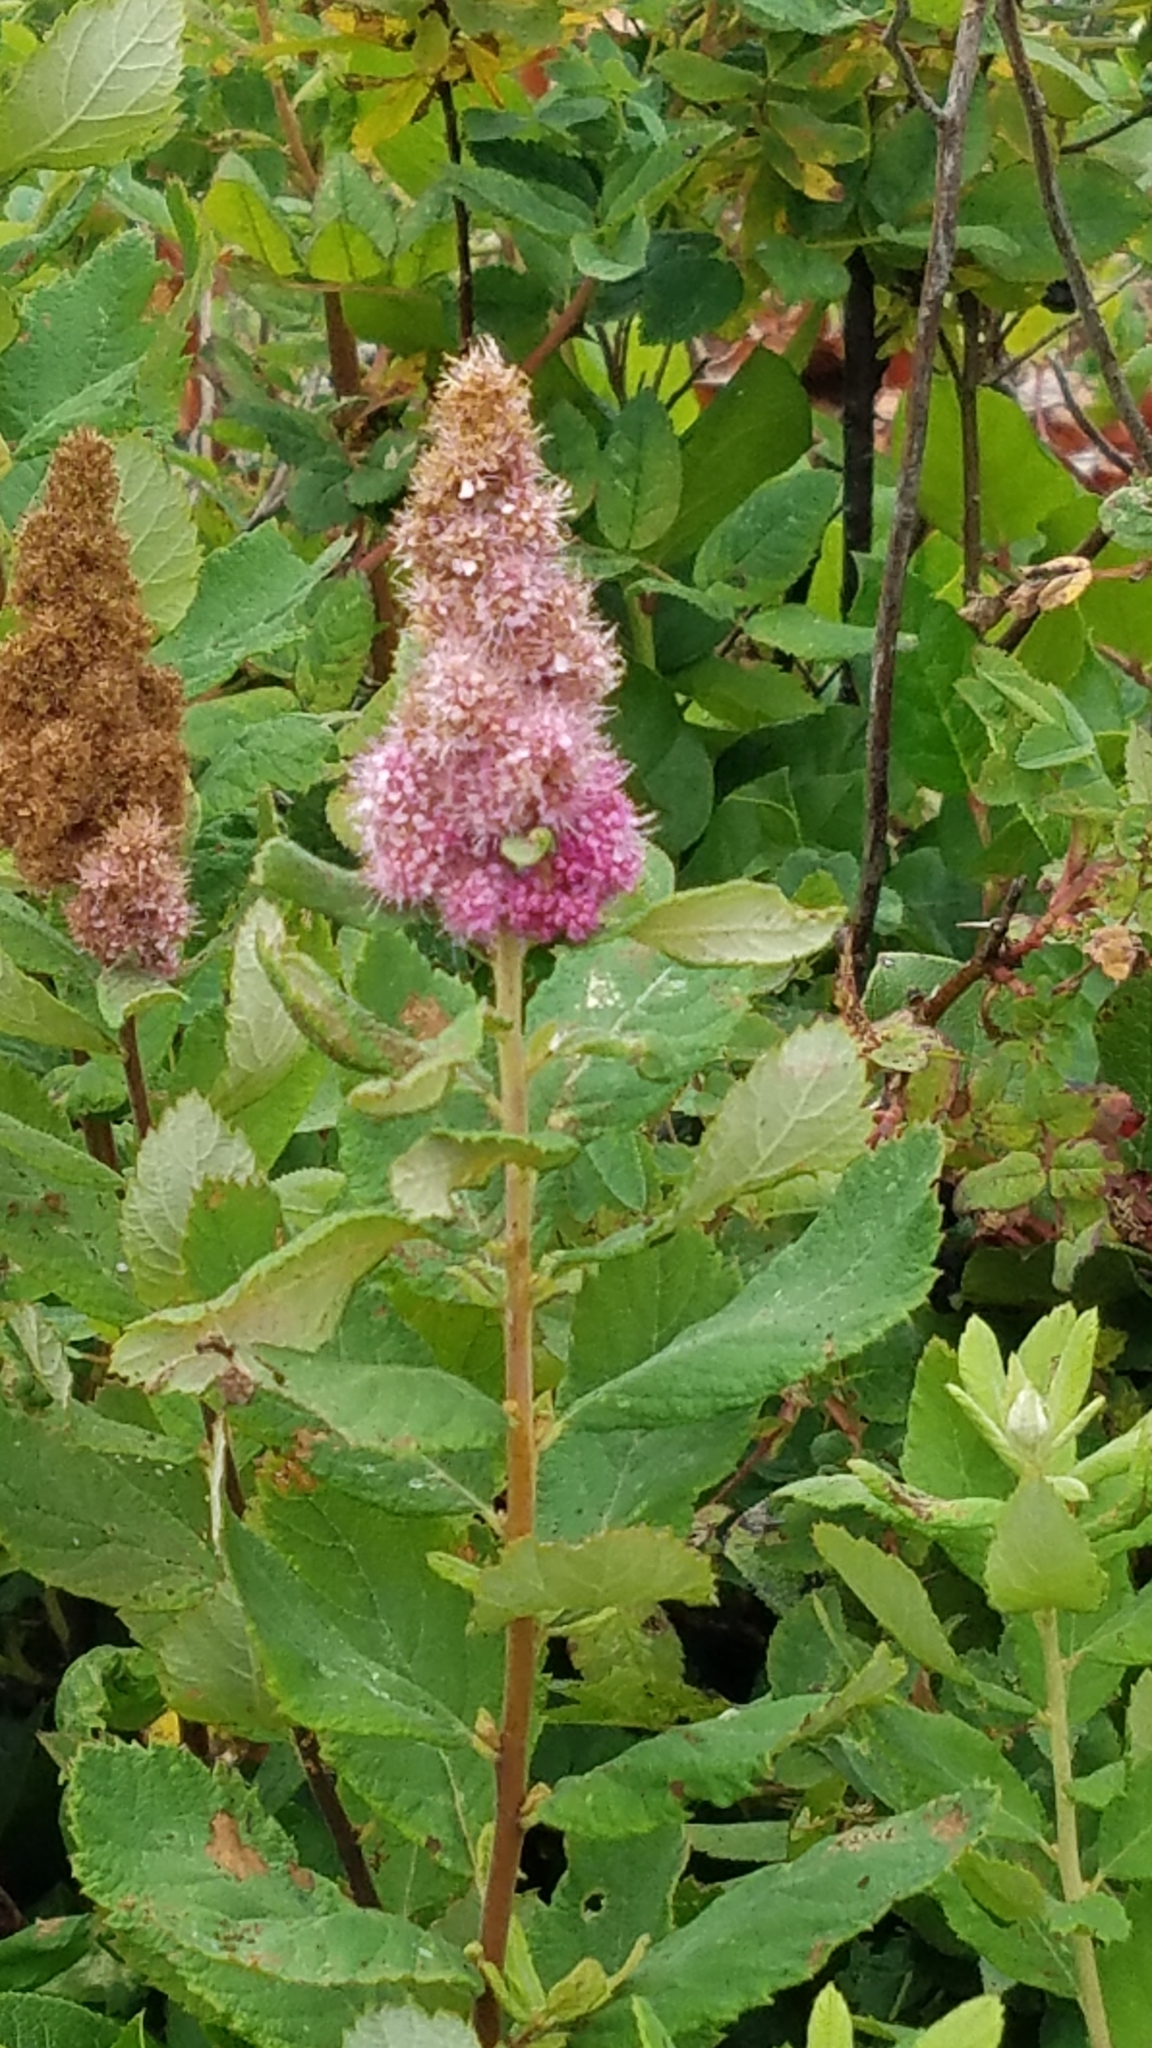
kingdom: Plantae
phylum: Tracheophyta
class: Magnoliopsida
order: Rosales
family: Rosaceae
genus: Spiraea
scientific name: Spiraea douglasii
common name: Steeplebush
